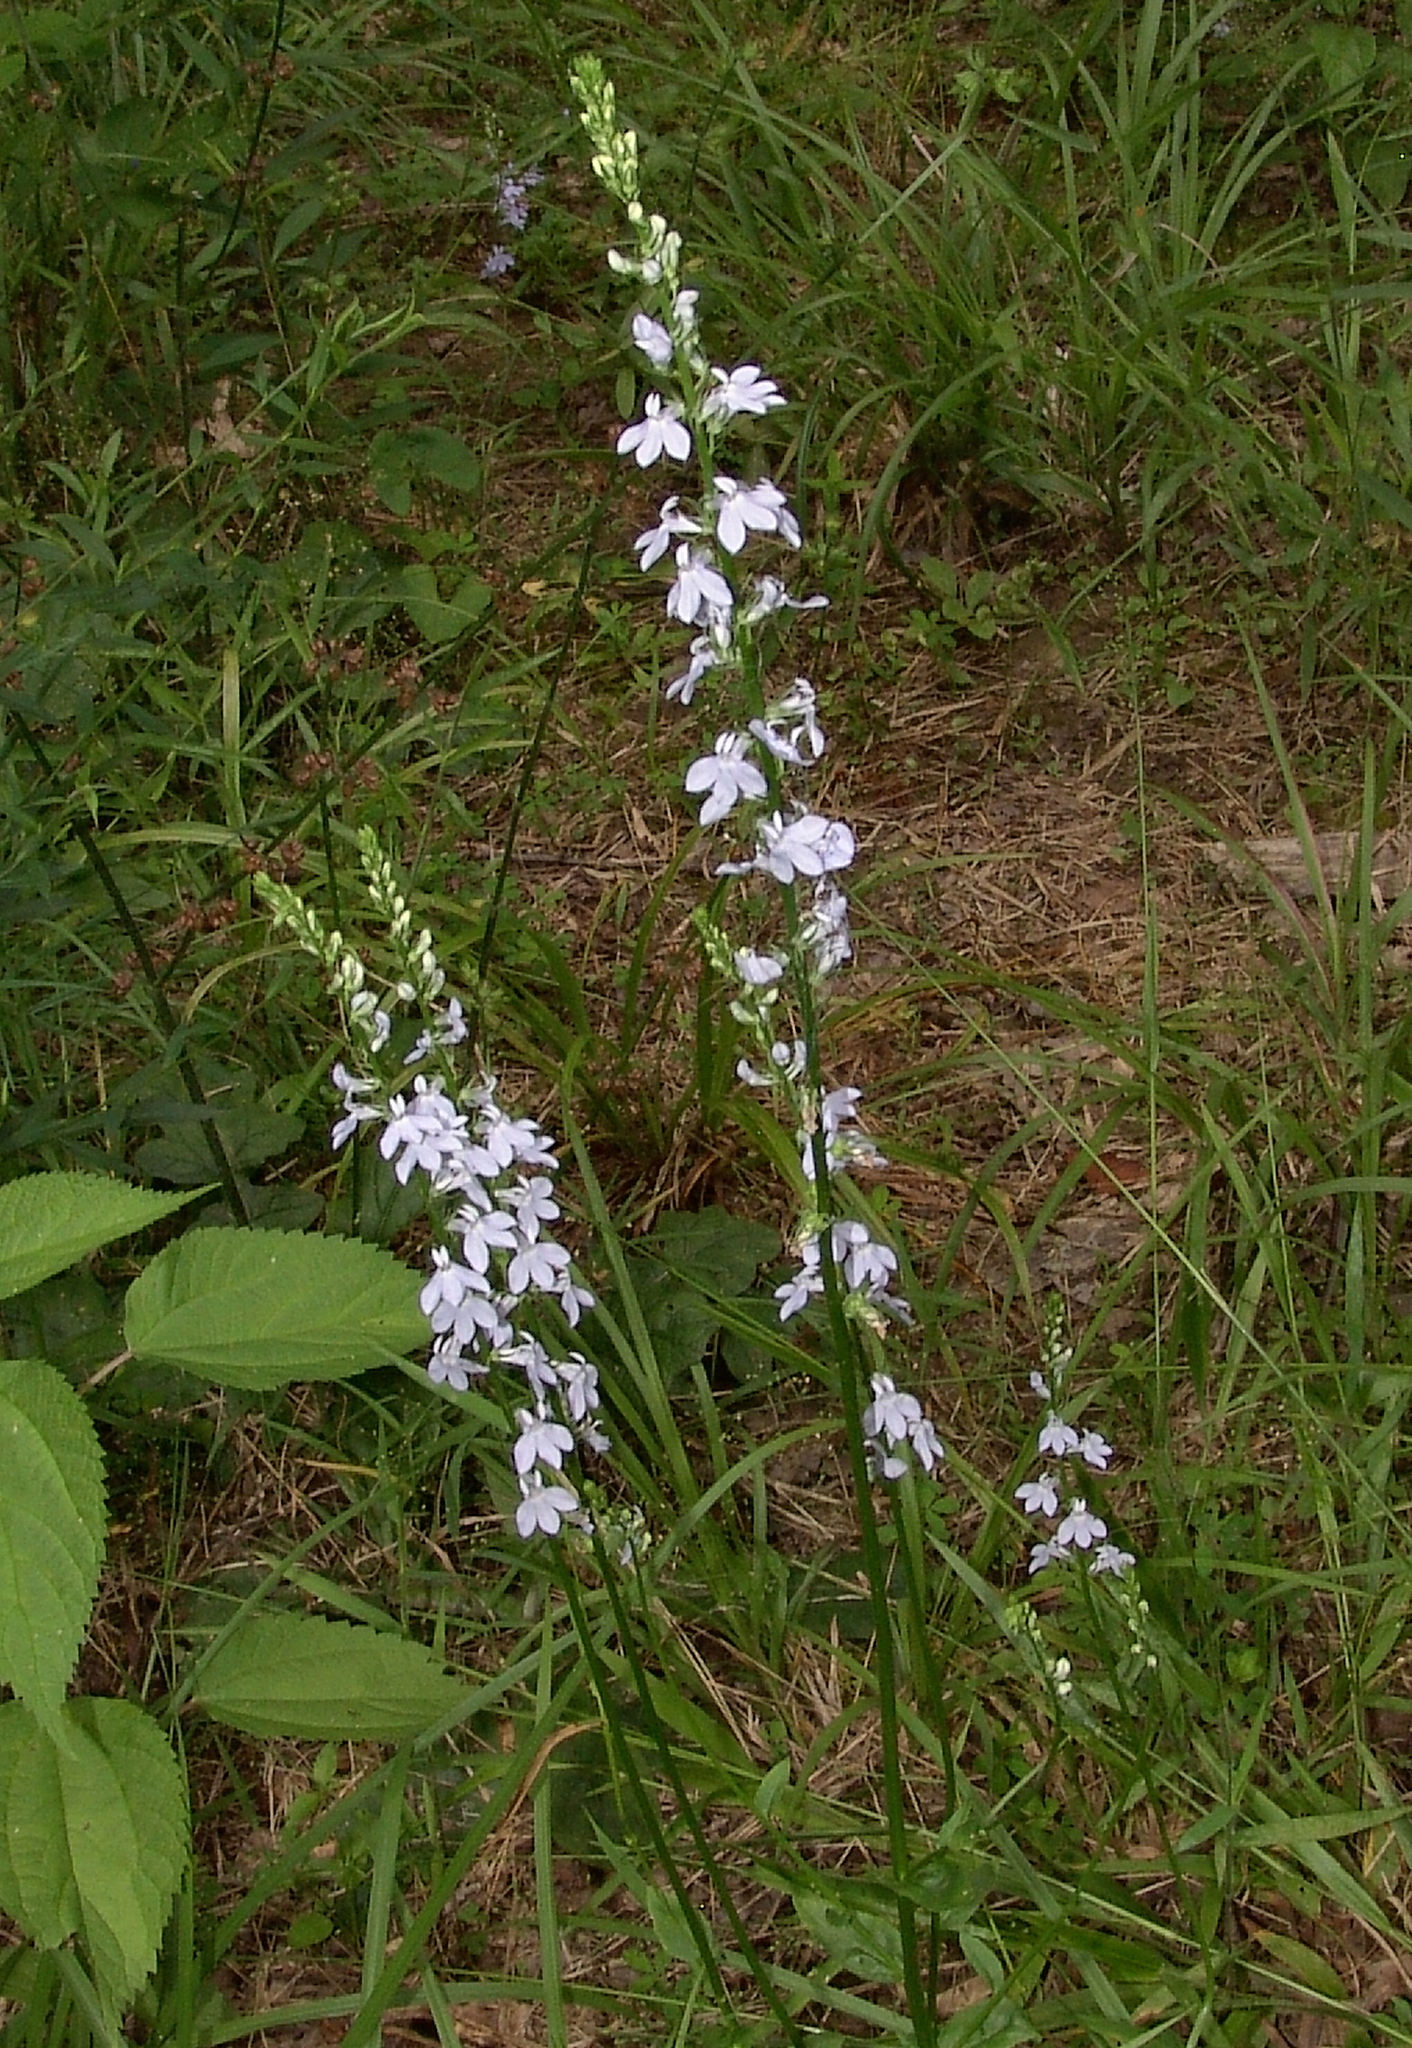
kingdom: Plantae
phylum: Tracheophyta
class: Magnoliopsida
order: Asterales
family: Campanulaceae
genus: Lobelia
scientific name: Lobelia spicata
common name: Pale-spike lobelia
